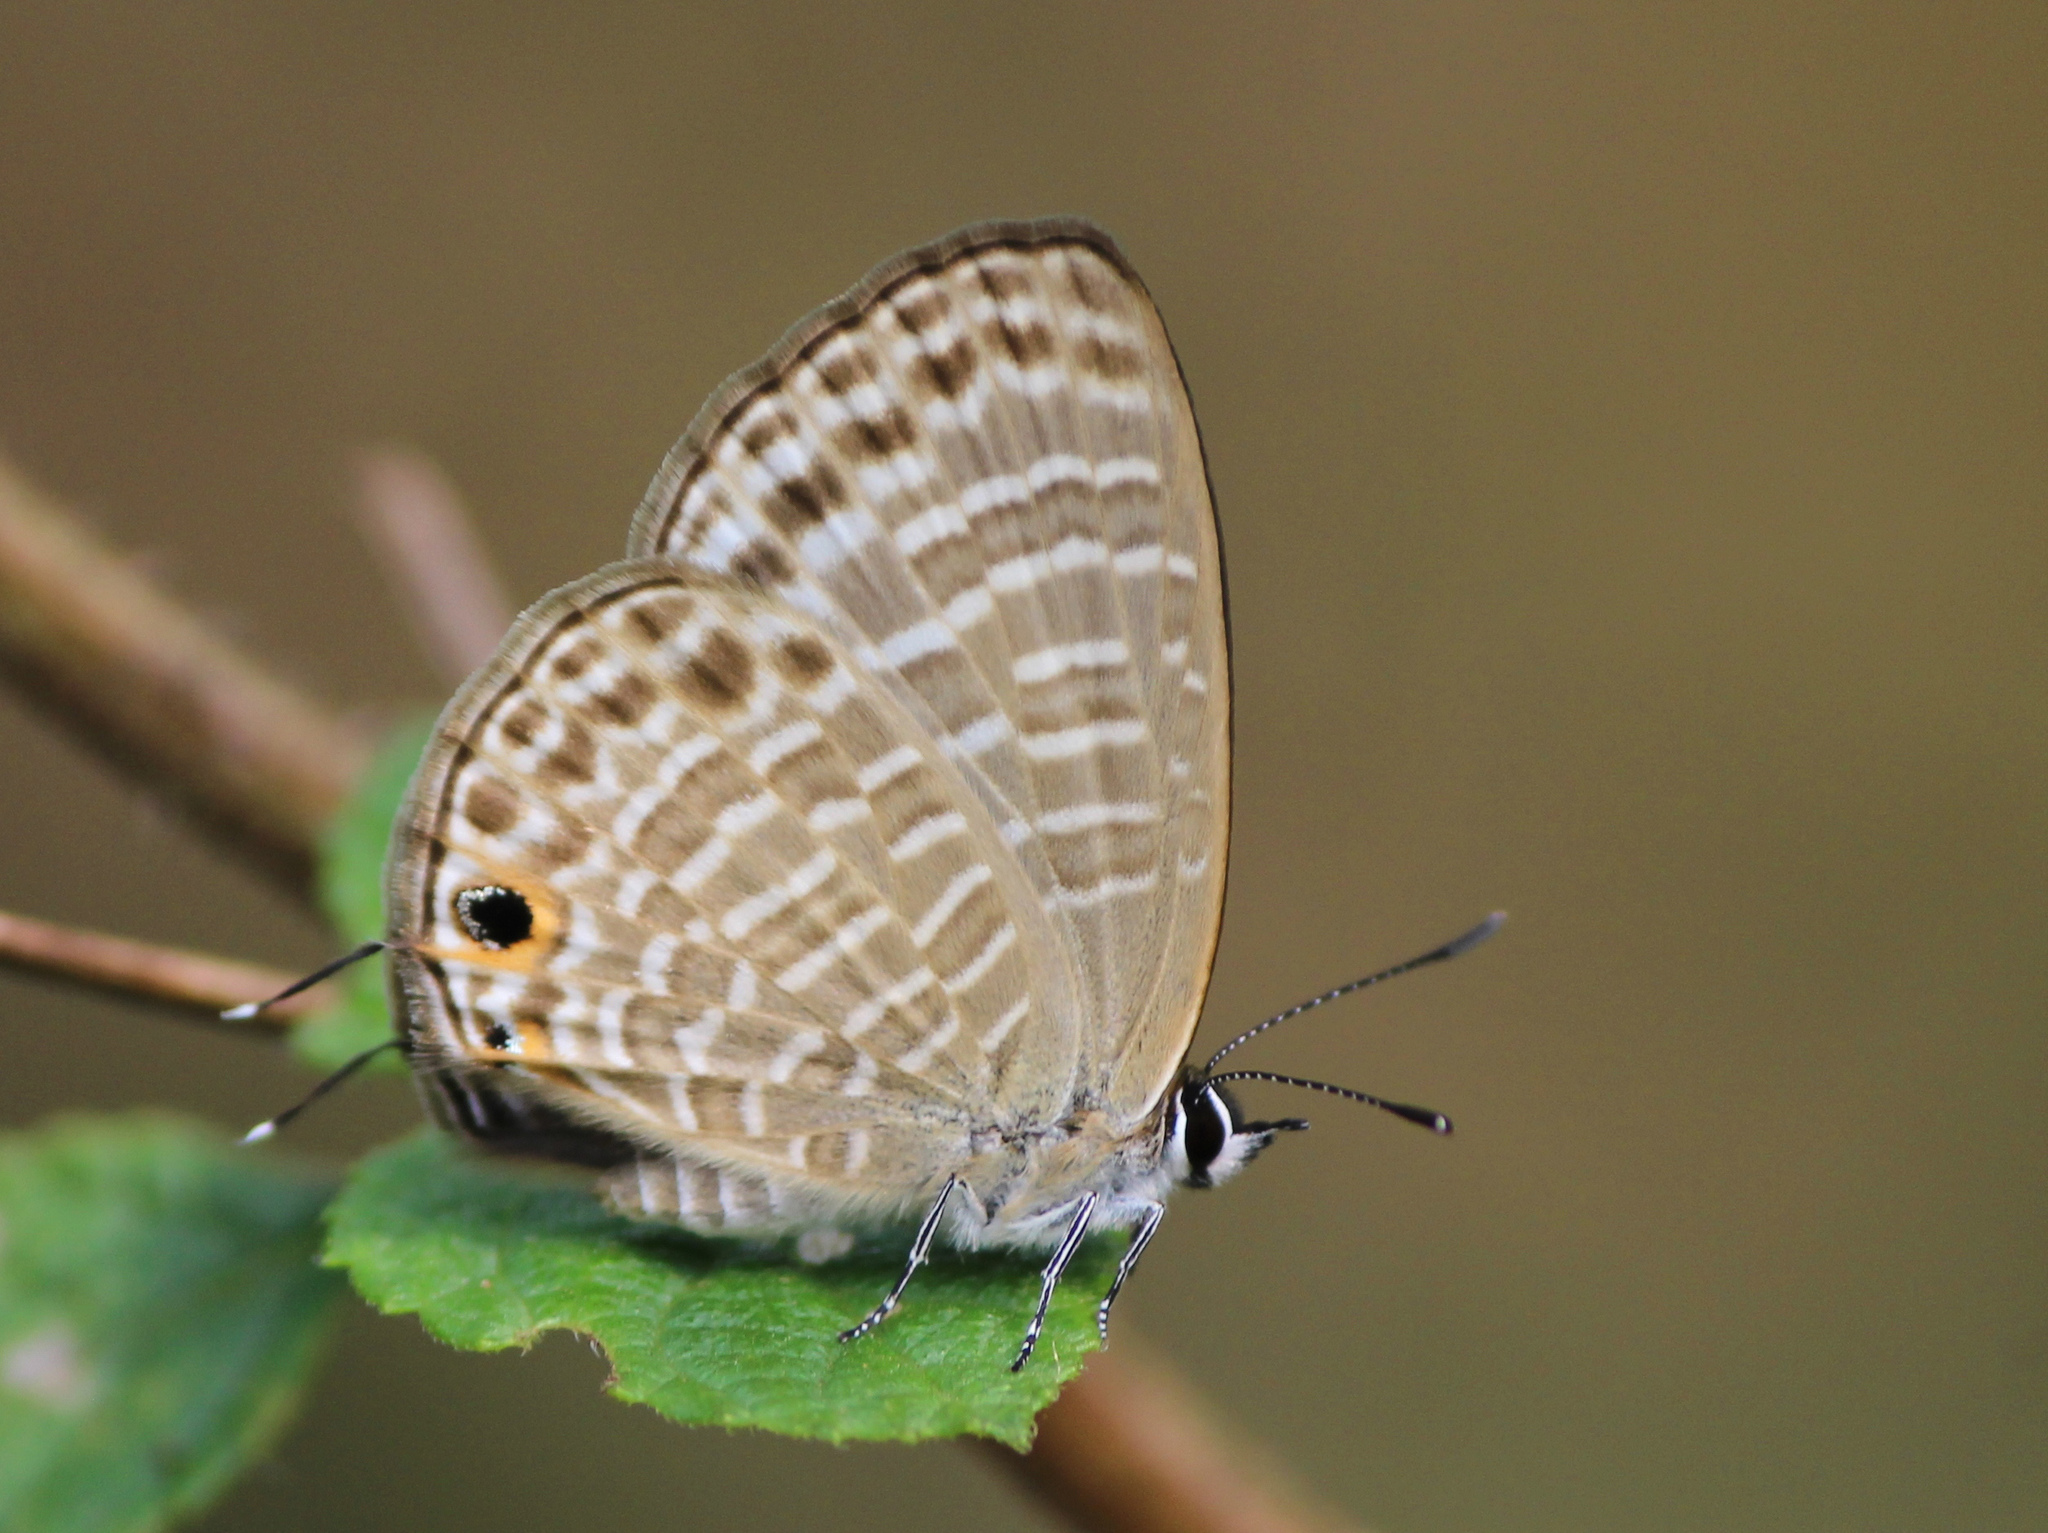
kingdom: Animalia
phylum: Arthropoda
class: Insecta
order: Lepidoptera
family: Lycaenidae
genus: Nacaduba
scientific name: Nacaduba kurava
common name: Transparent 6-line blue
